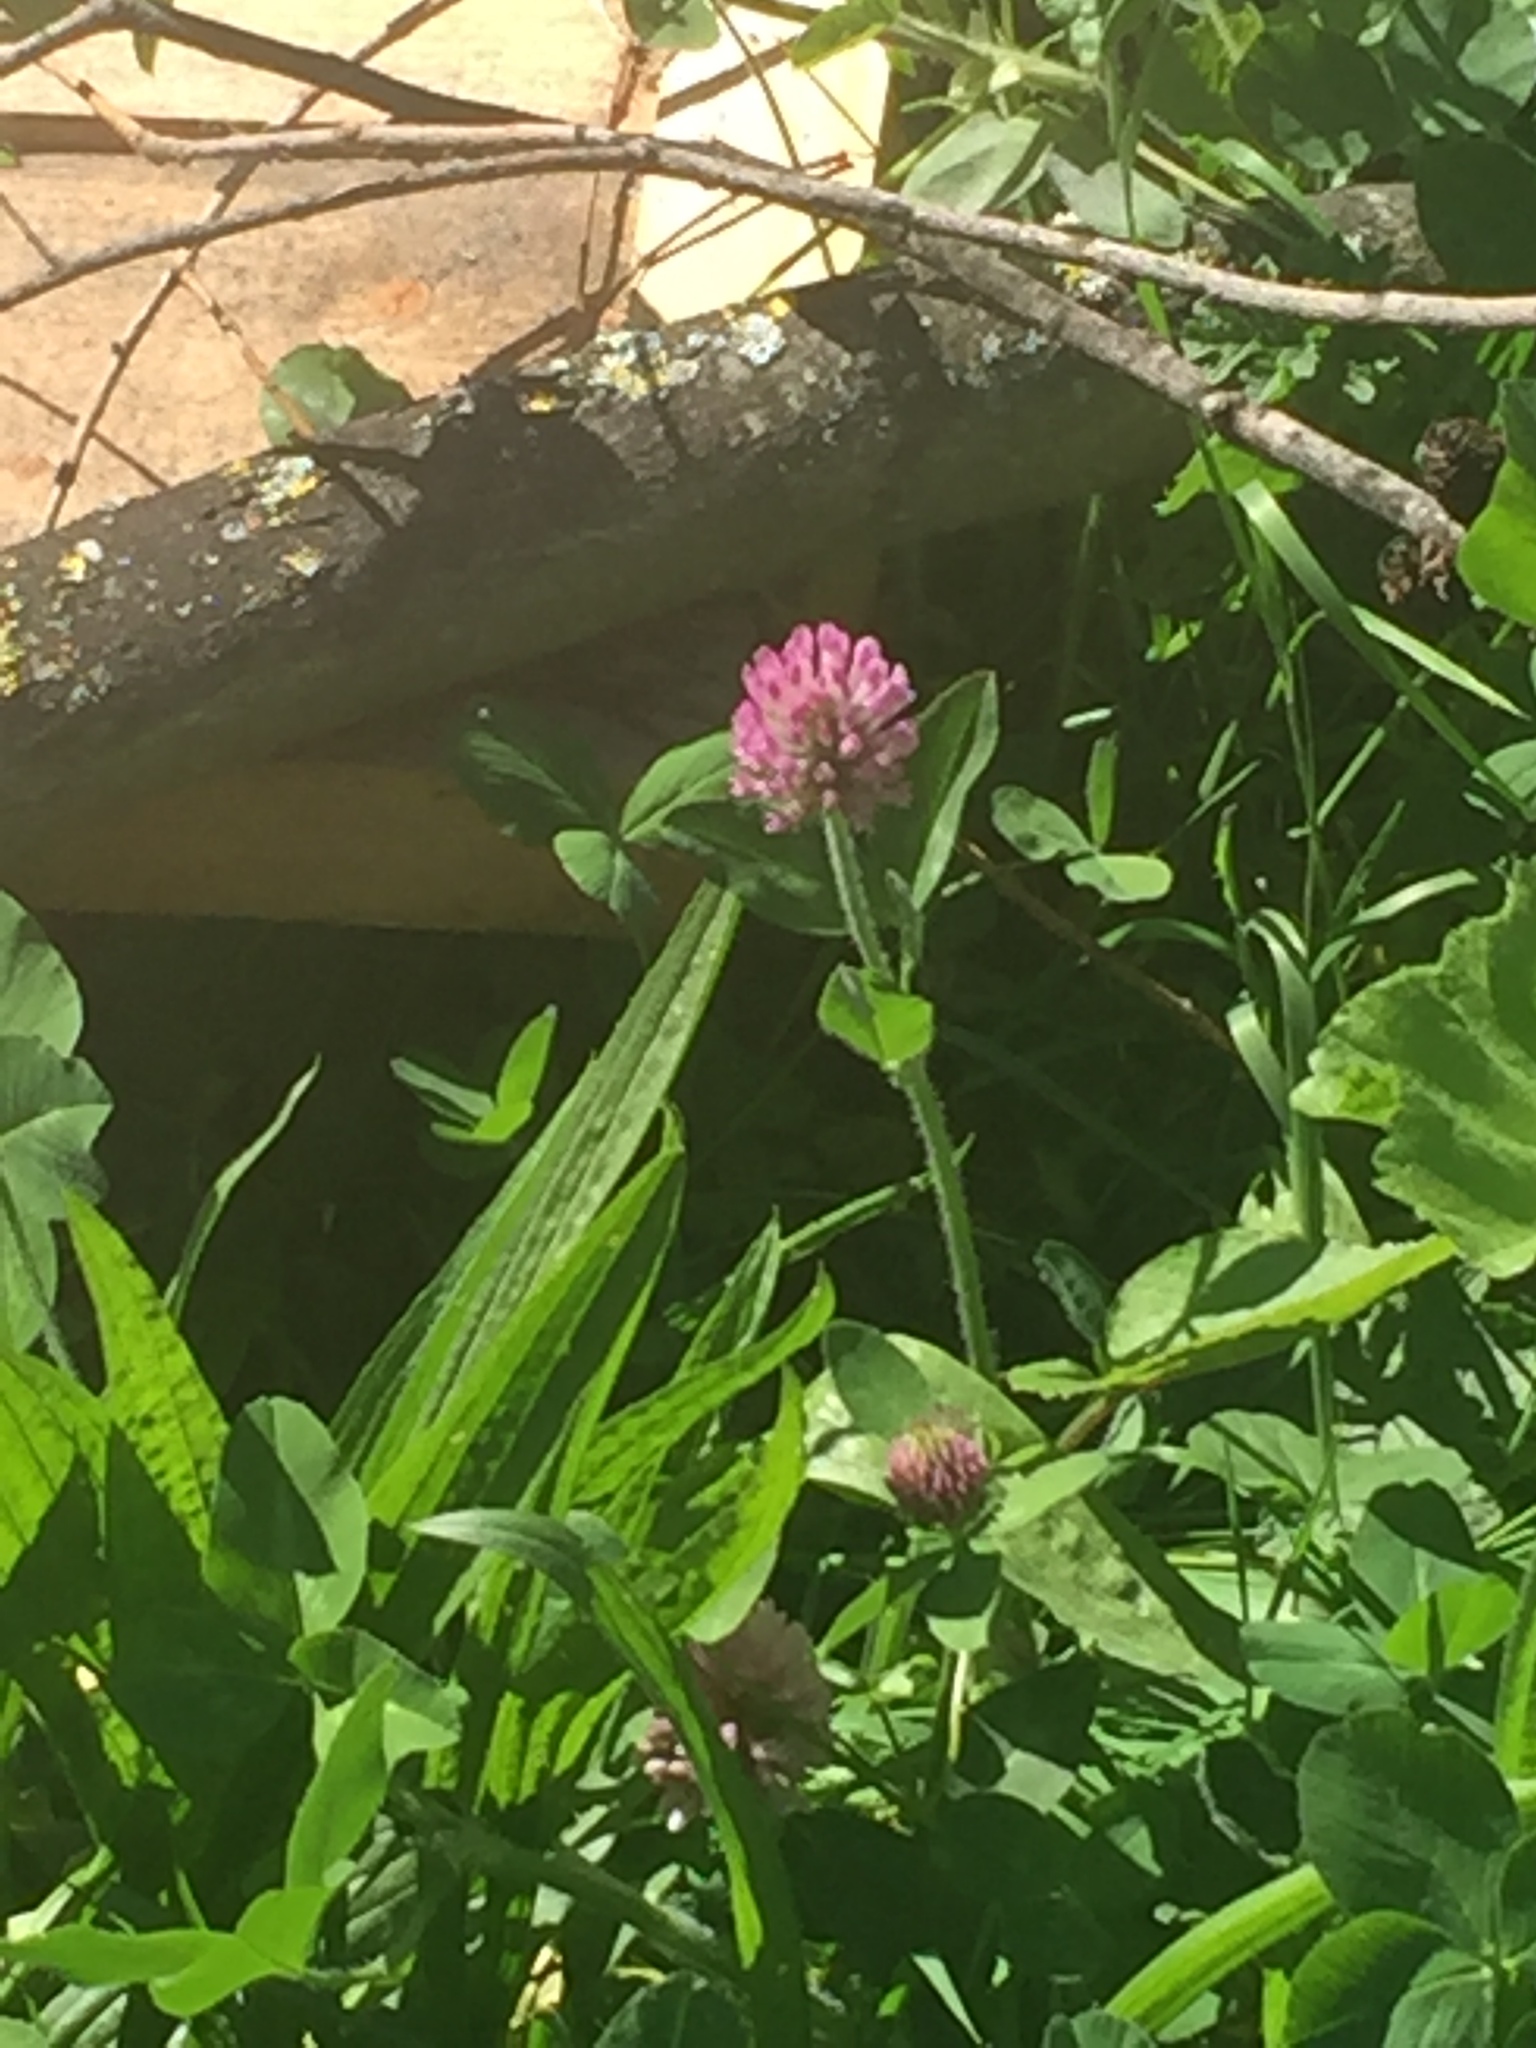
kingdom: Plantae
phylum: Tracheophyta
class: Magnoliopsida
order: Fabales
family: Fabaceae
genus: Trifolium
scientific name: Trifolium pratense
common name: Red clover
